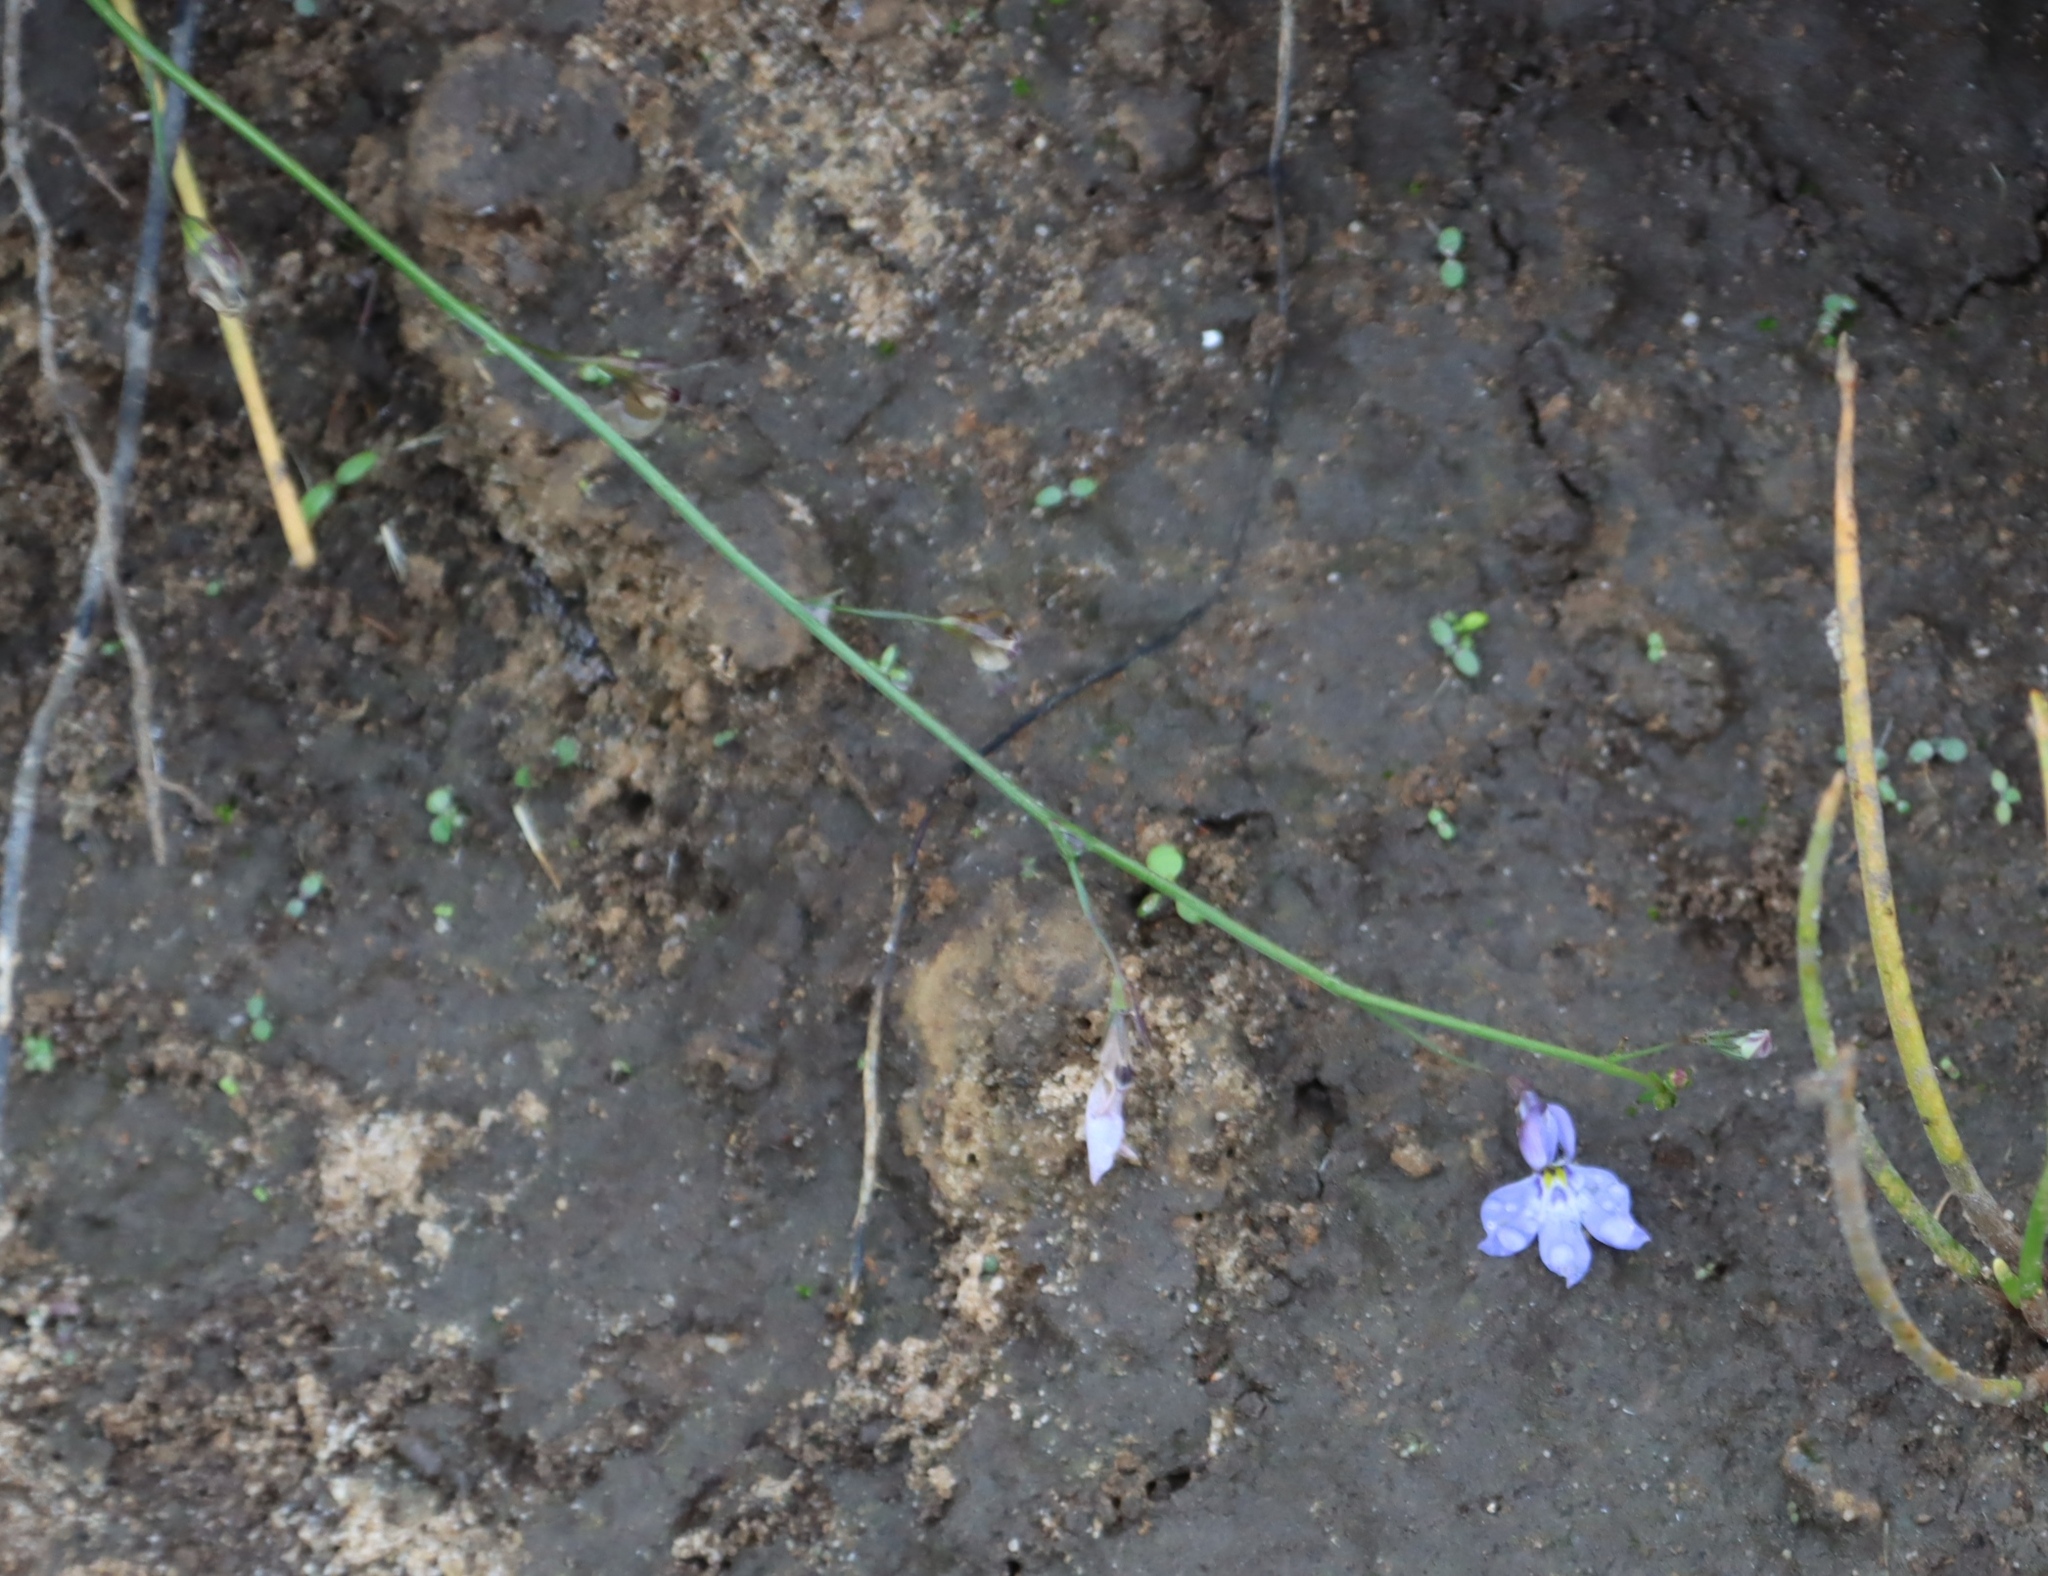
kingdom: Plantae
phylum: Tracheophyta
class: Magnoliopsida
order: Asterales
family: Campanulaceae
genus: Lobelia
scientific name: Lobelia erinus
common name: Edging lobelia
